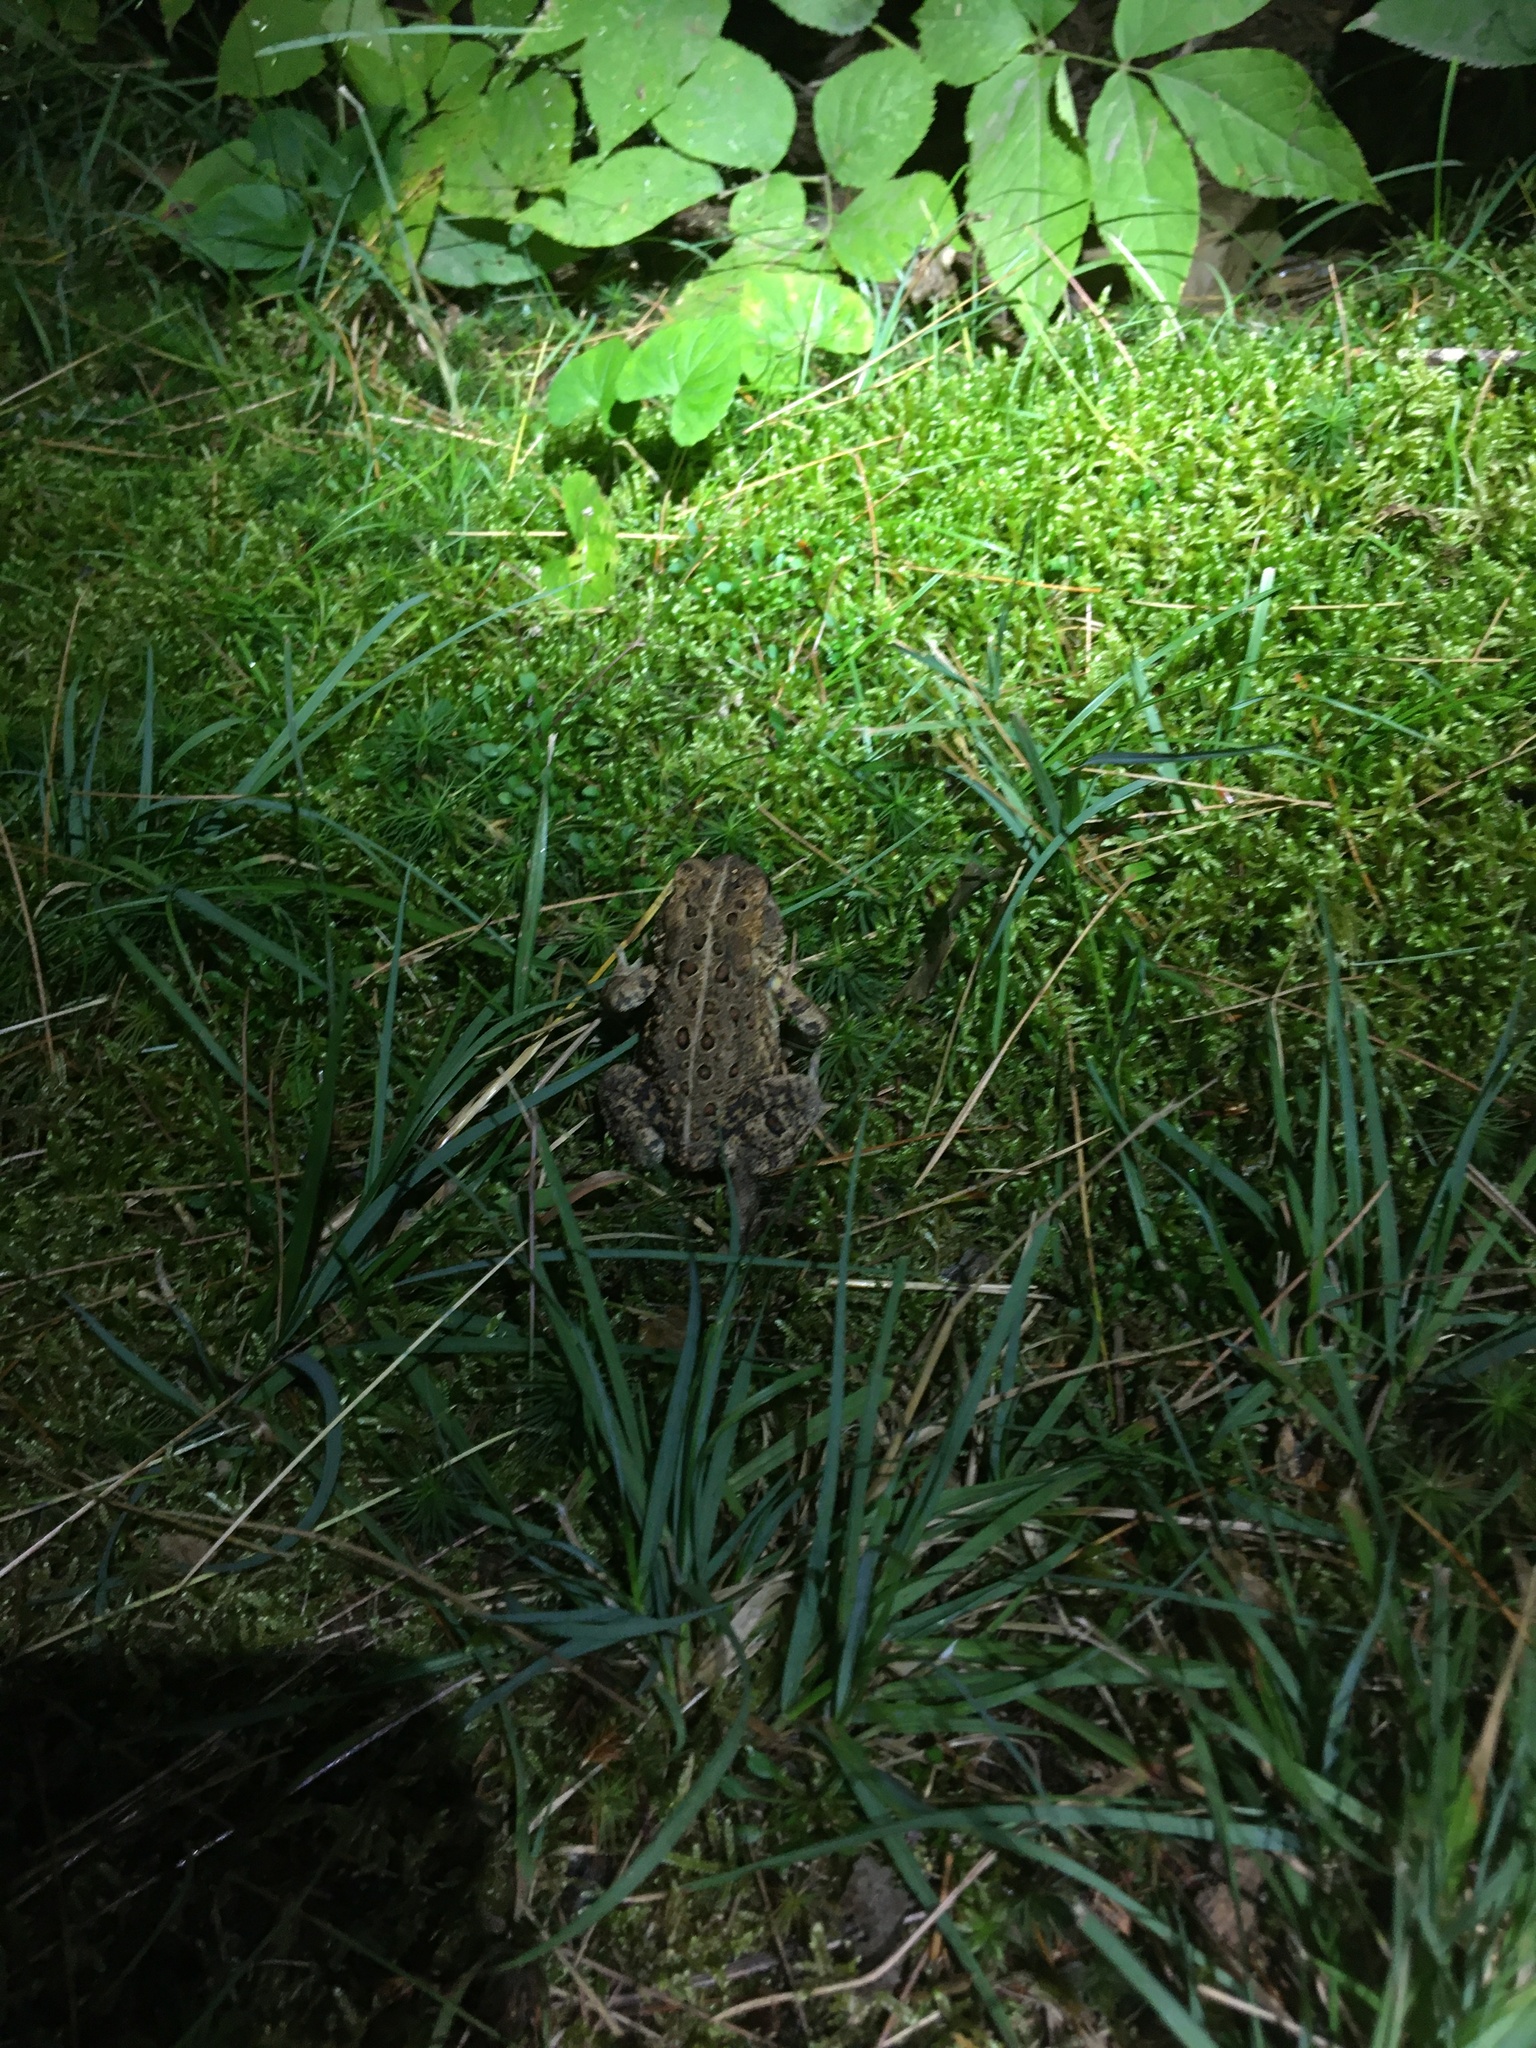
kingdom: Animalia
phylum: Chordata
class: Amphibia
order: Anura
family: Bufonidae
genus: Anaxyrus
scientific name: Anaxyrus americanus
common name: American toad
